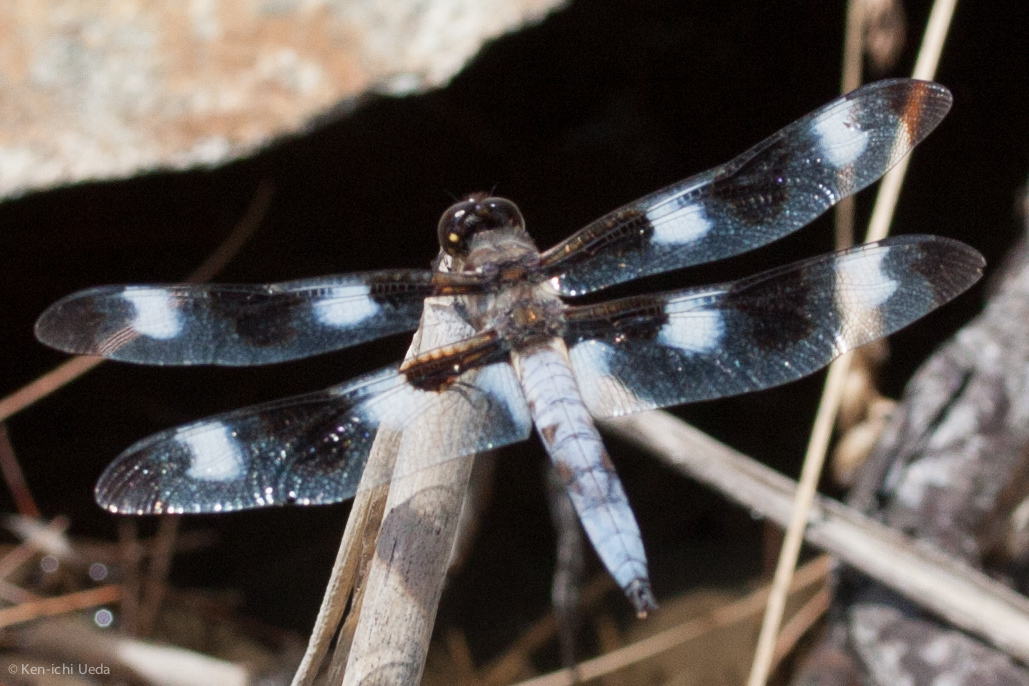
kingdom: Animalia
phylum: Arthropoda
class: Insecta
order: Odonata
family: Libellulidae
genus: Libellula
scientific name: Libellula pulchella
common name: Twelve-spotted skimmer
